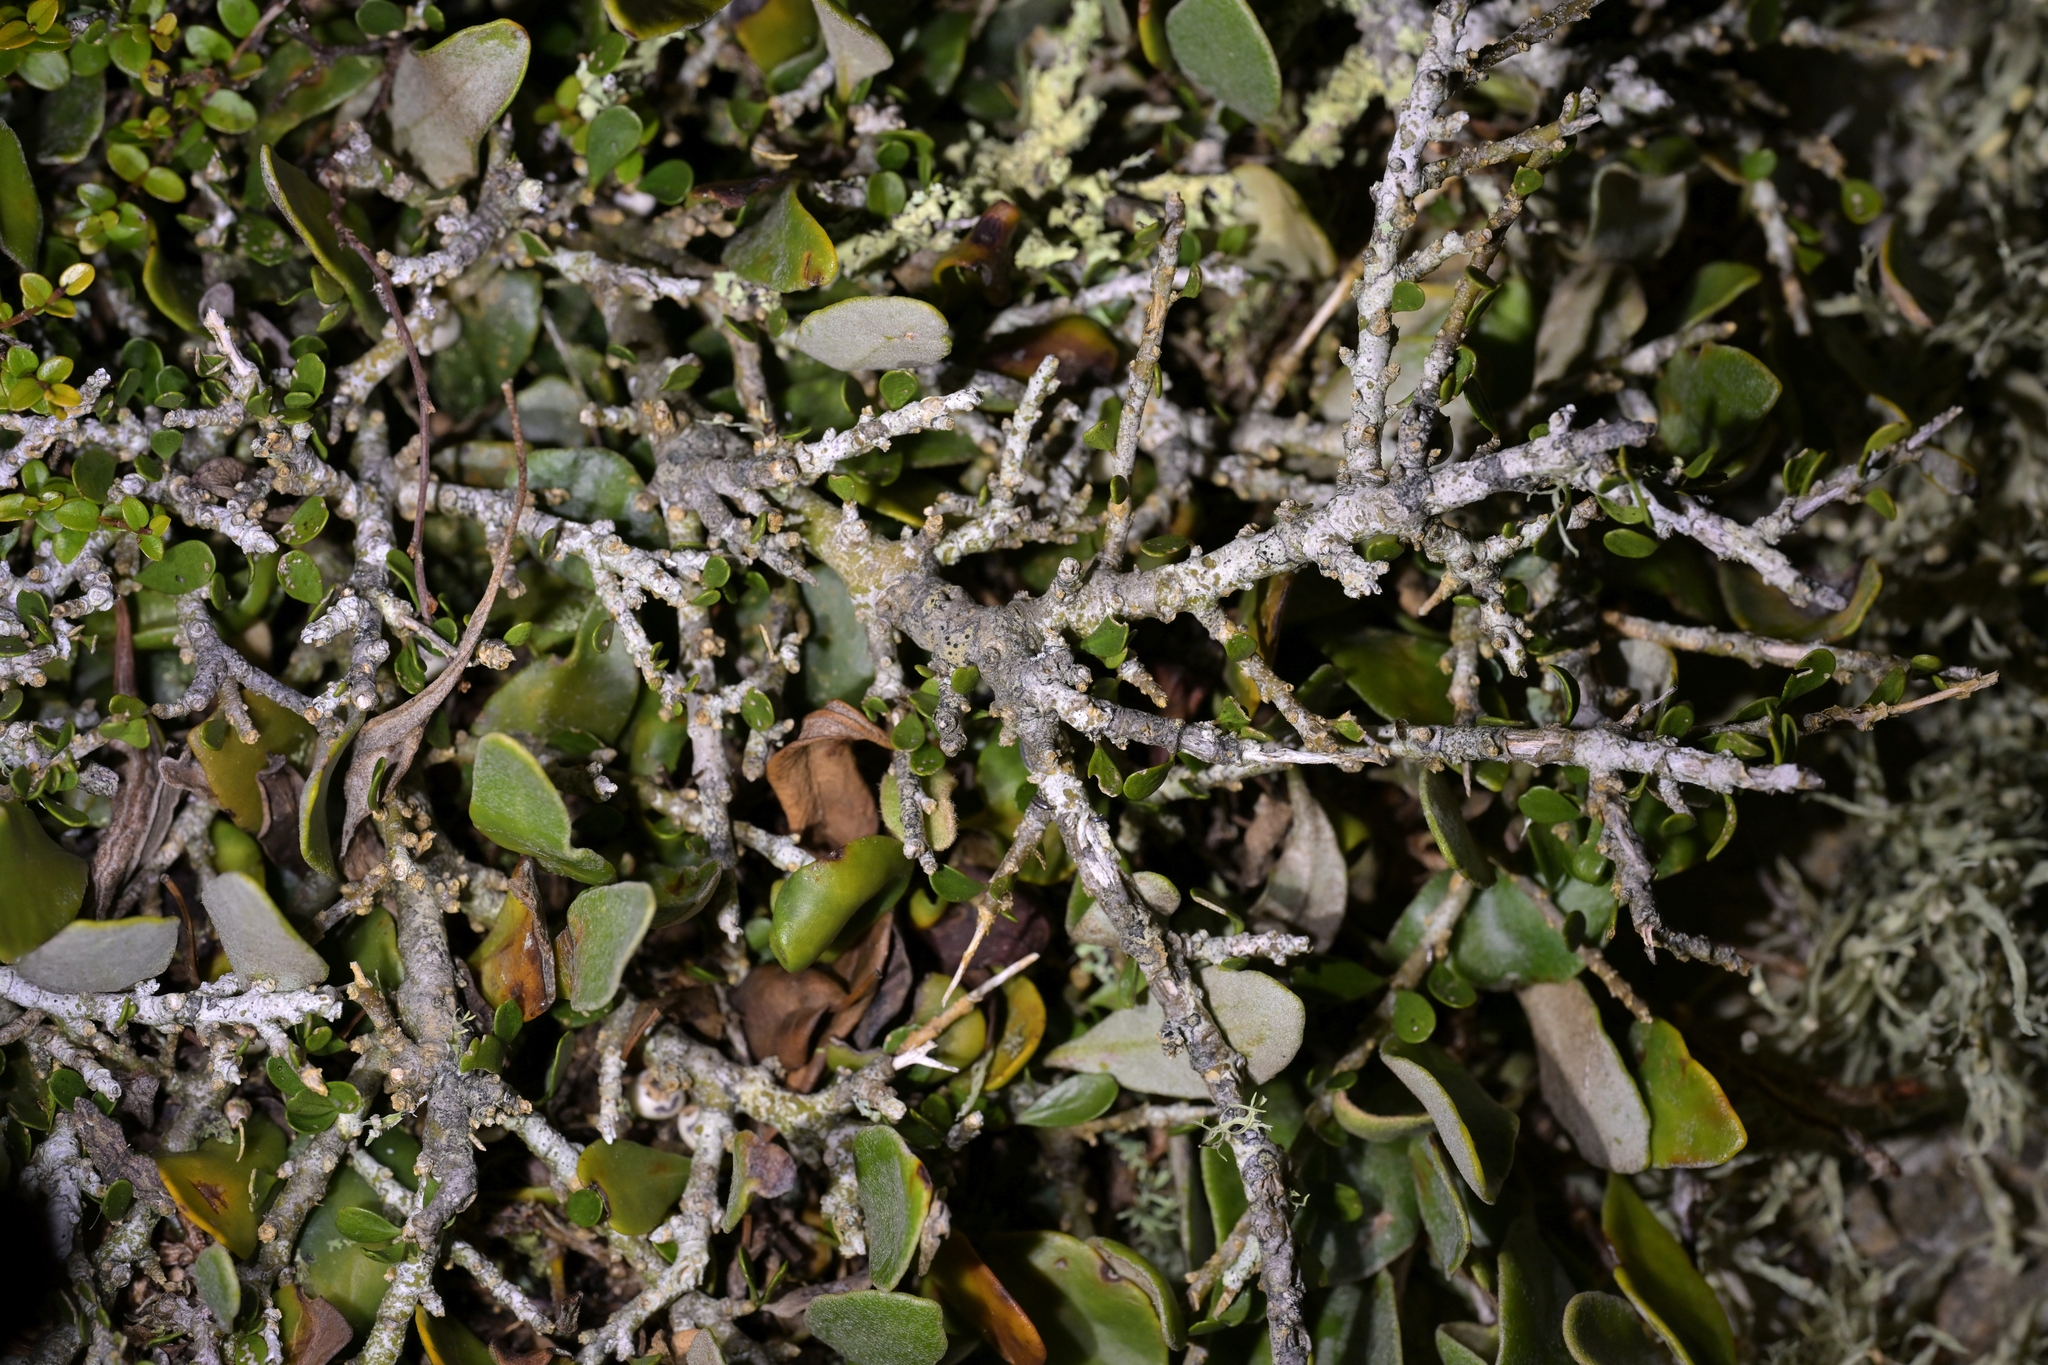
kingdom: Plantae
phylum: Tracheophyta
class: Magnoliopsida
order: Malpighiales
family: Violaceae
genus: Melicytus
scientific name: Melicytus crassifolius
